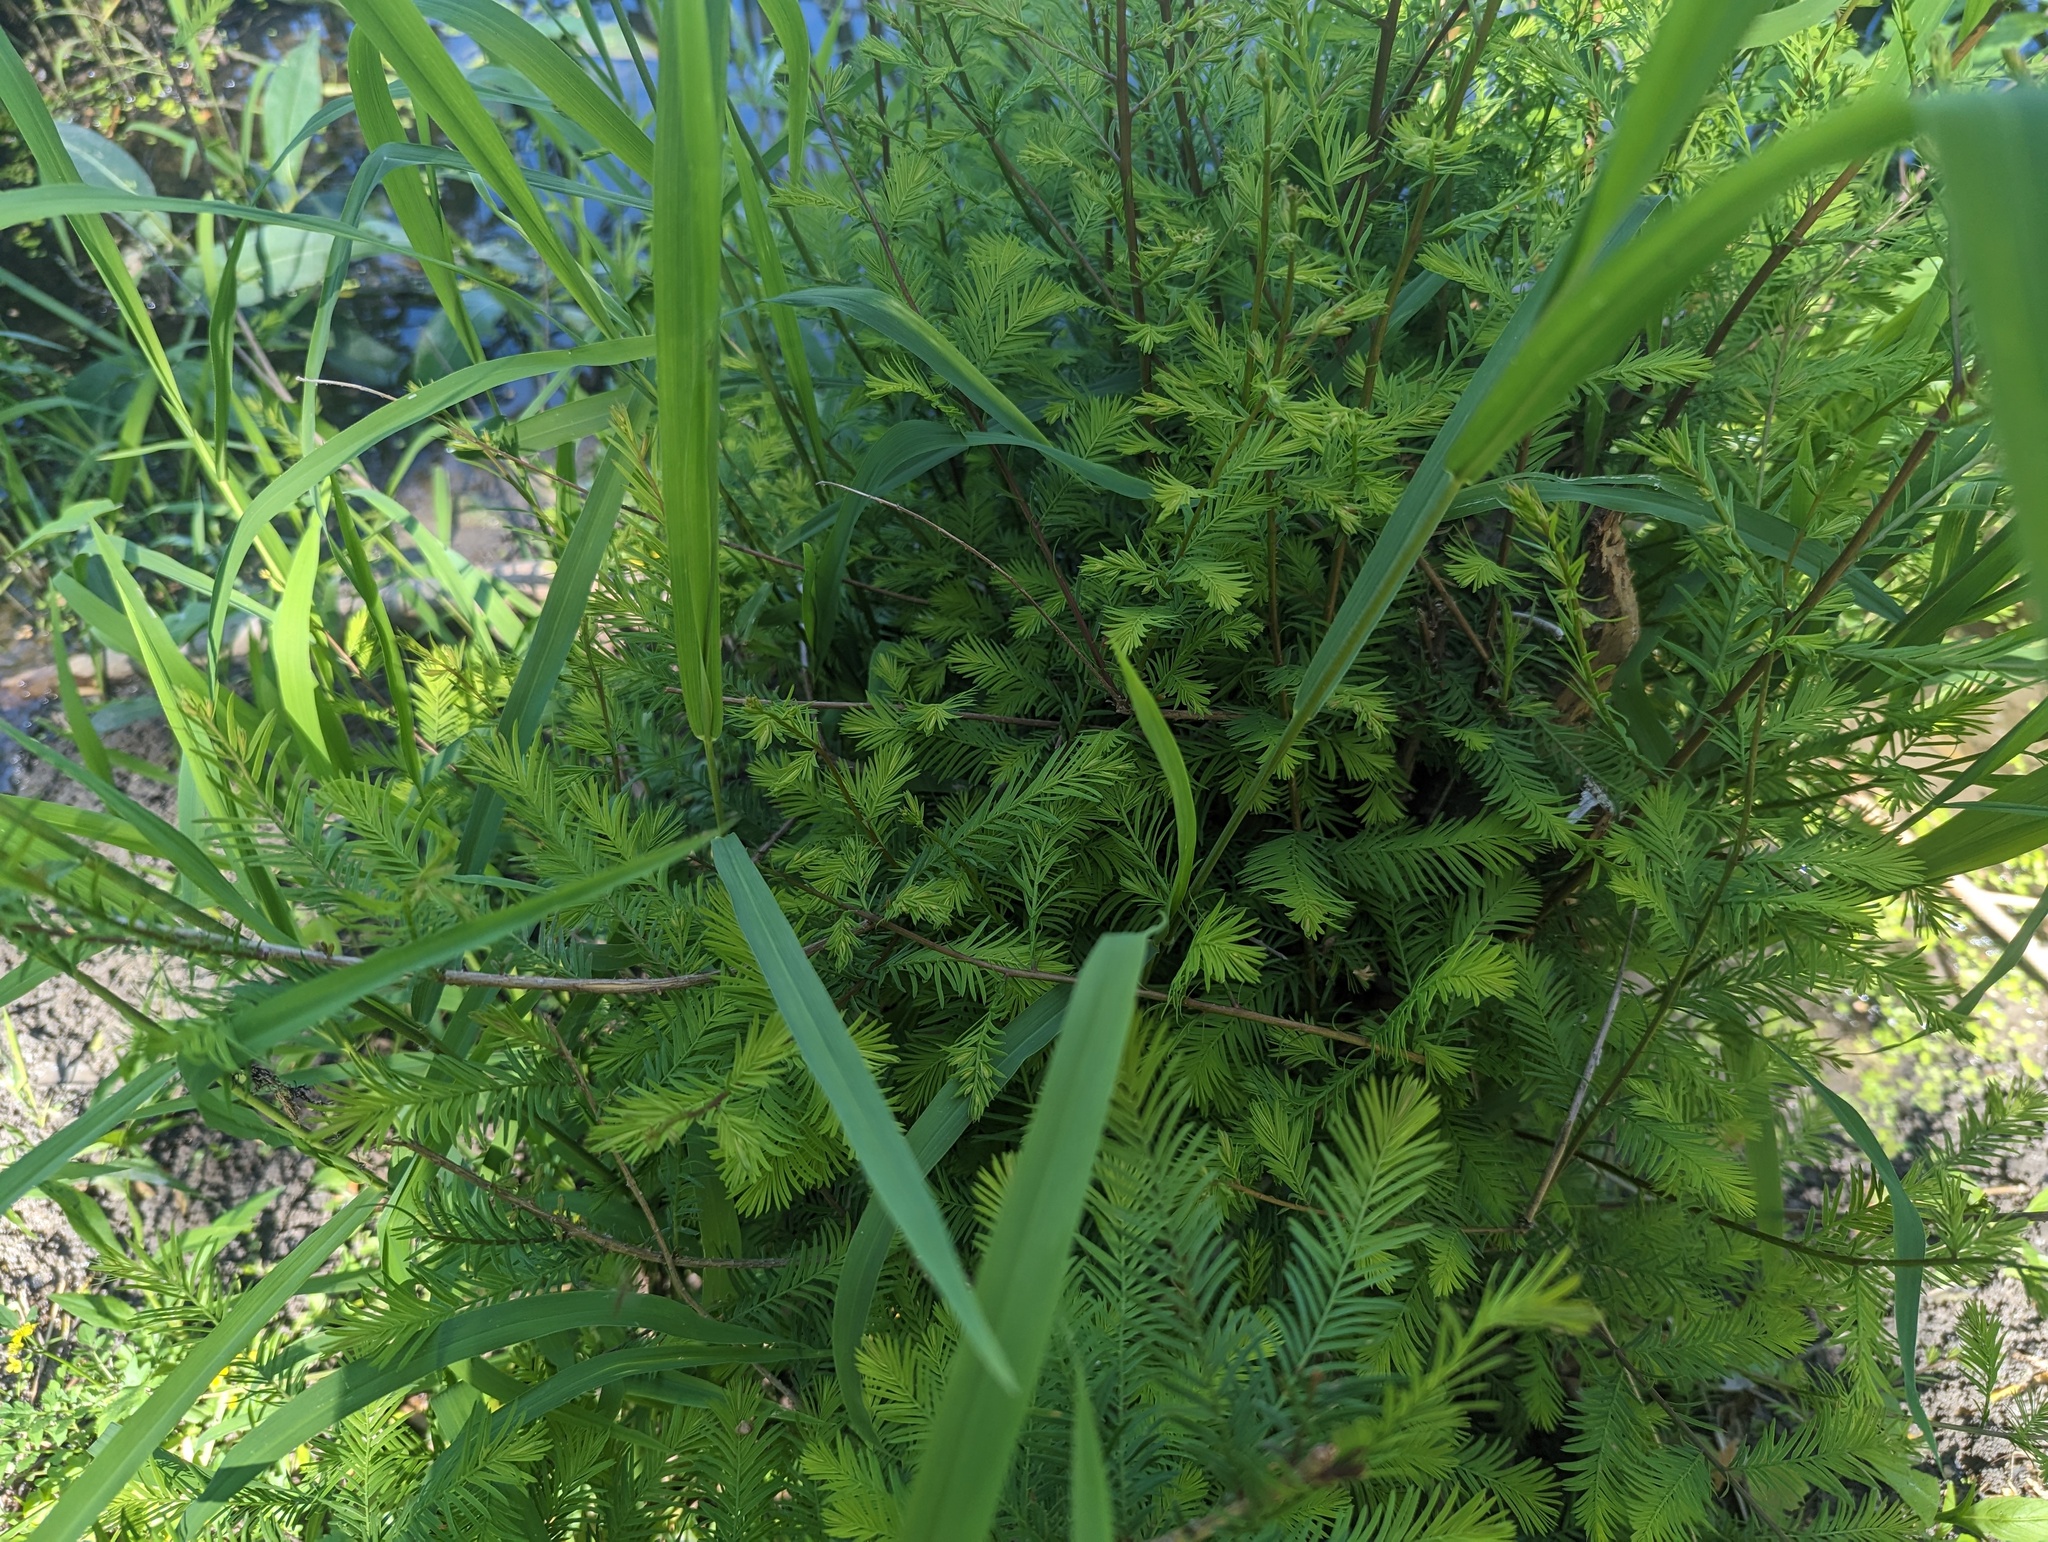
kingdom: Plantae
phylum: Tracheophyta
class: Pinopsida
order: Pinales
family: Cupressaceae
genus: Taxodium
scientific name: Taxodium distichum
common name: Bald cypress
